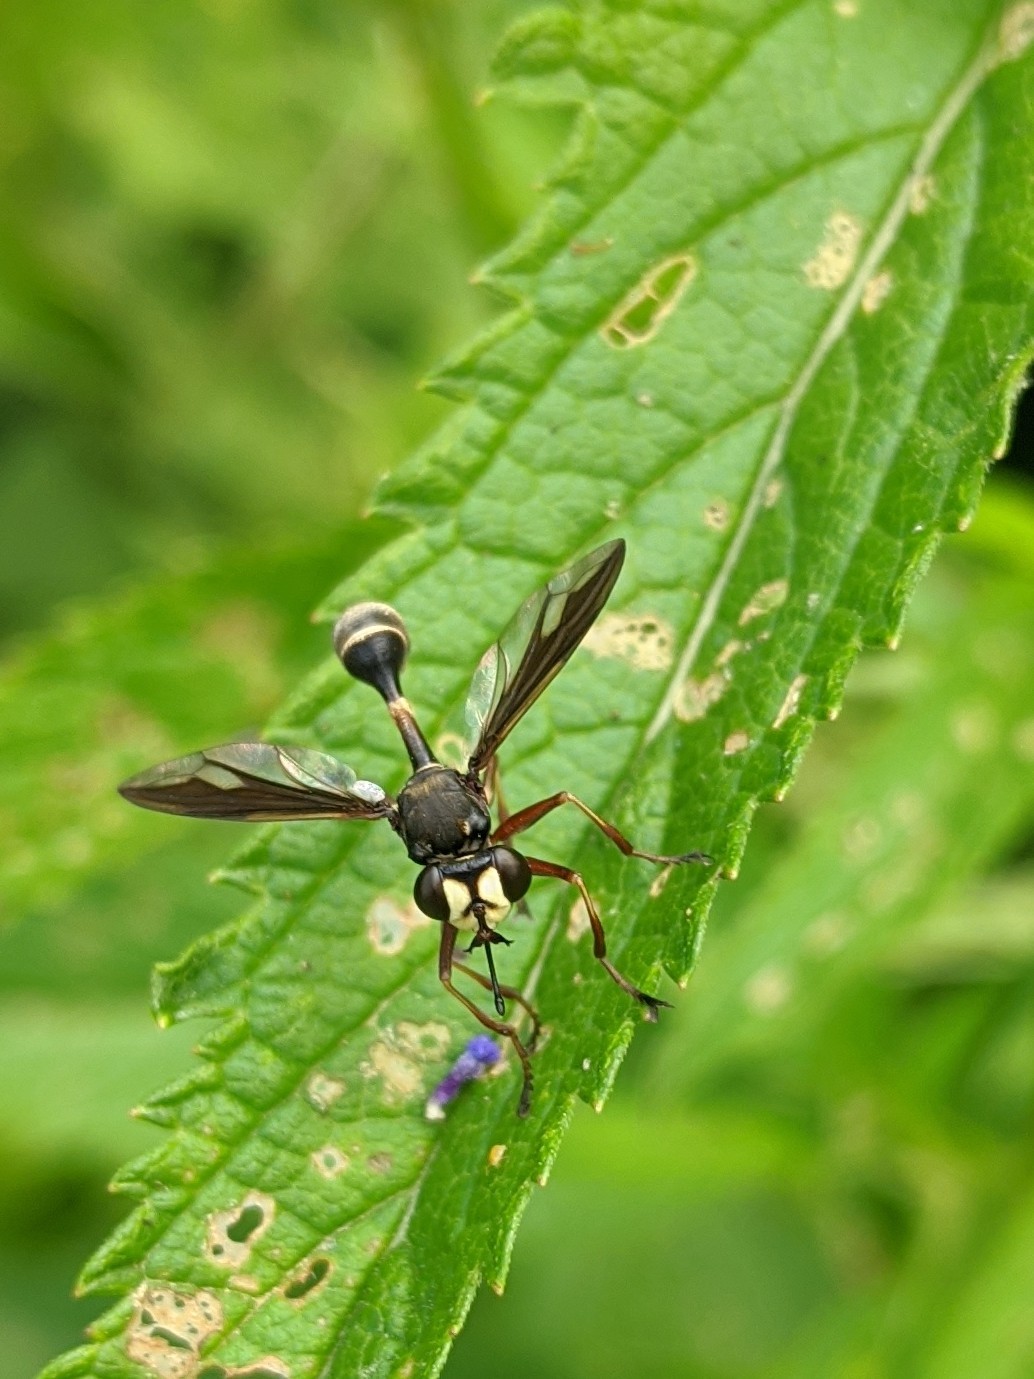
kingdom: Animalia
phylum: Arthropoda
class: Insecta
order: Diptera
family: Conopidae
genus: Physocephala
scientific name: Physocephala furcillata
